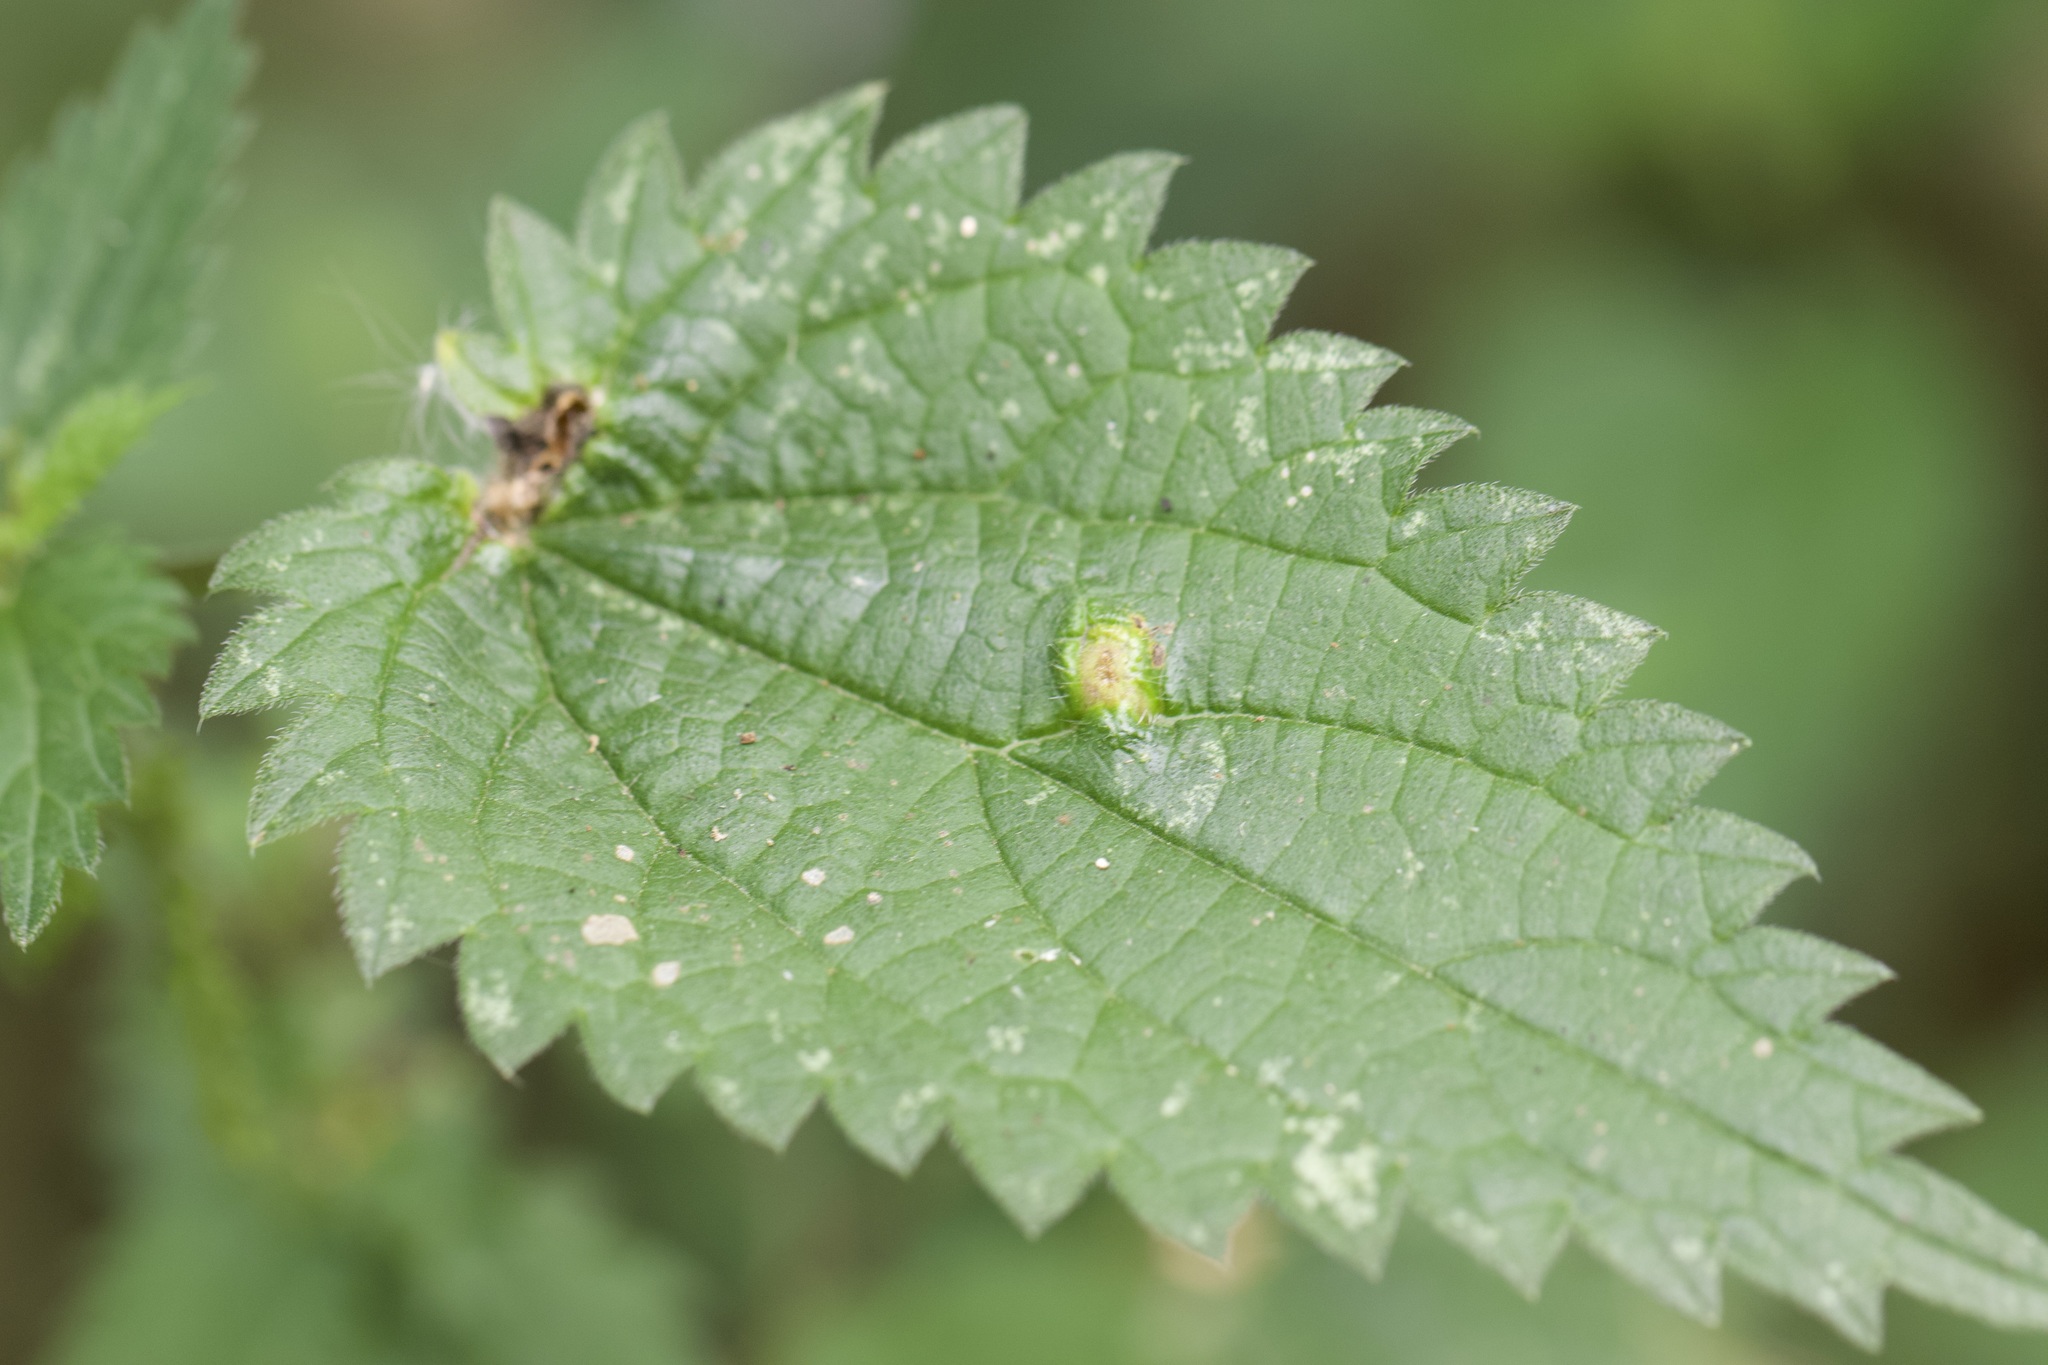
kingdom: Animalia
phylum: Arthropoda
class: Insecta
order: Diptera
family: Cecidomyiidae
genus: Dasineura
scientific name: Dasineura urticae
